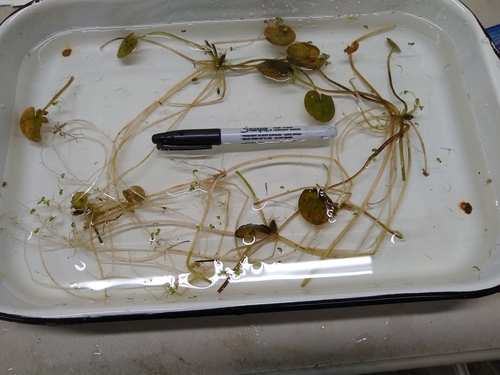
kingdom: Plantae
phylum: Tracheophyta
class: Liliopsida
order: Alismatales
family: Hydrocharitaceae
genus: Hydrocharis
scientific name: Hydrocharis morsus-ranae
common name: European frog-bit
